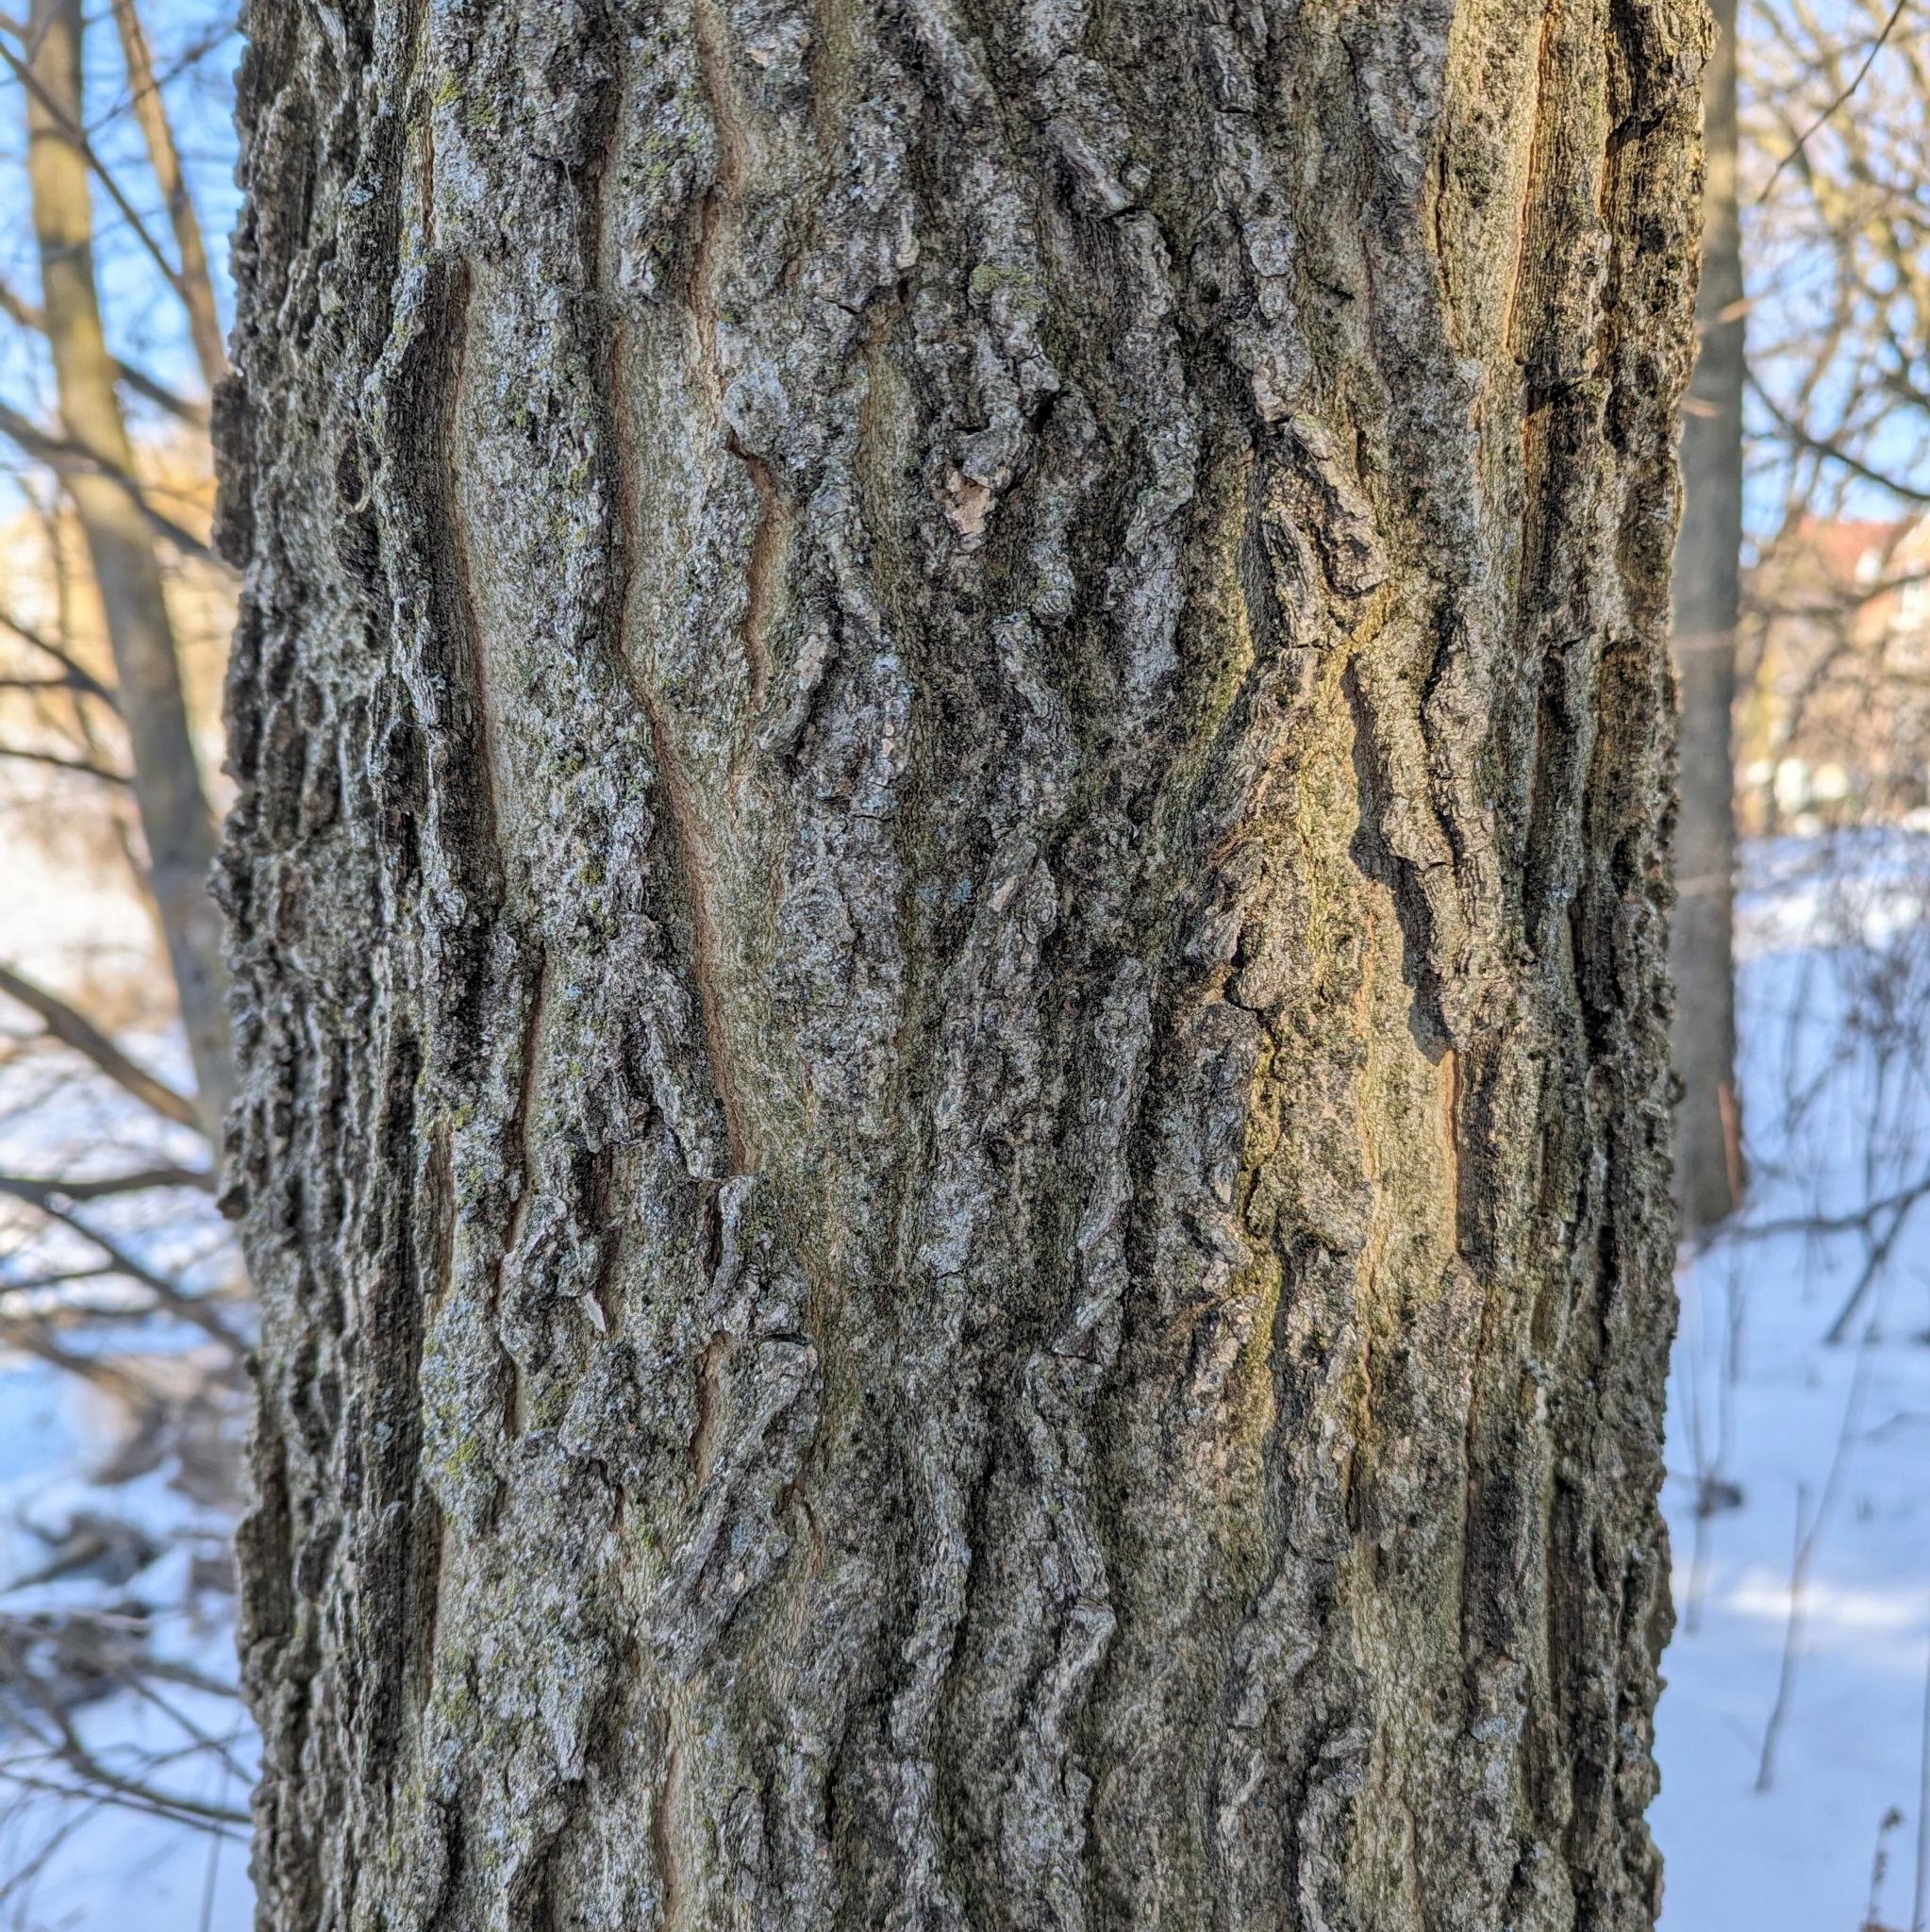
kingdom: Plantae
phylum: Tracheophyta
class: Magnoliopsida
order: Rosales
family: Cannabaceae
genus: Celtis
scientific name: Celtis occidentalis
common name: Common hackberry
